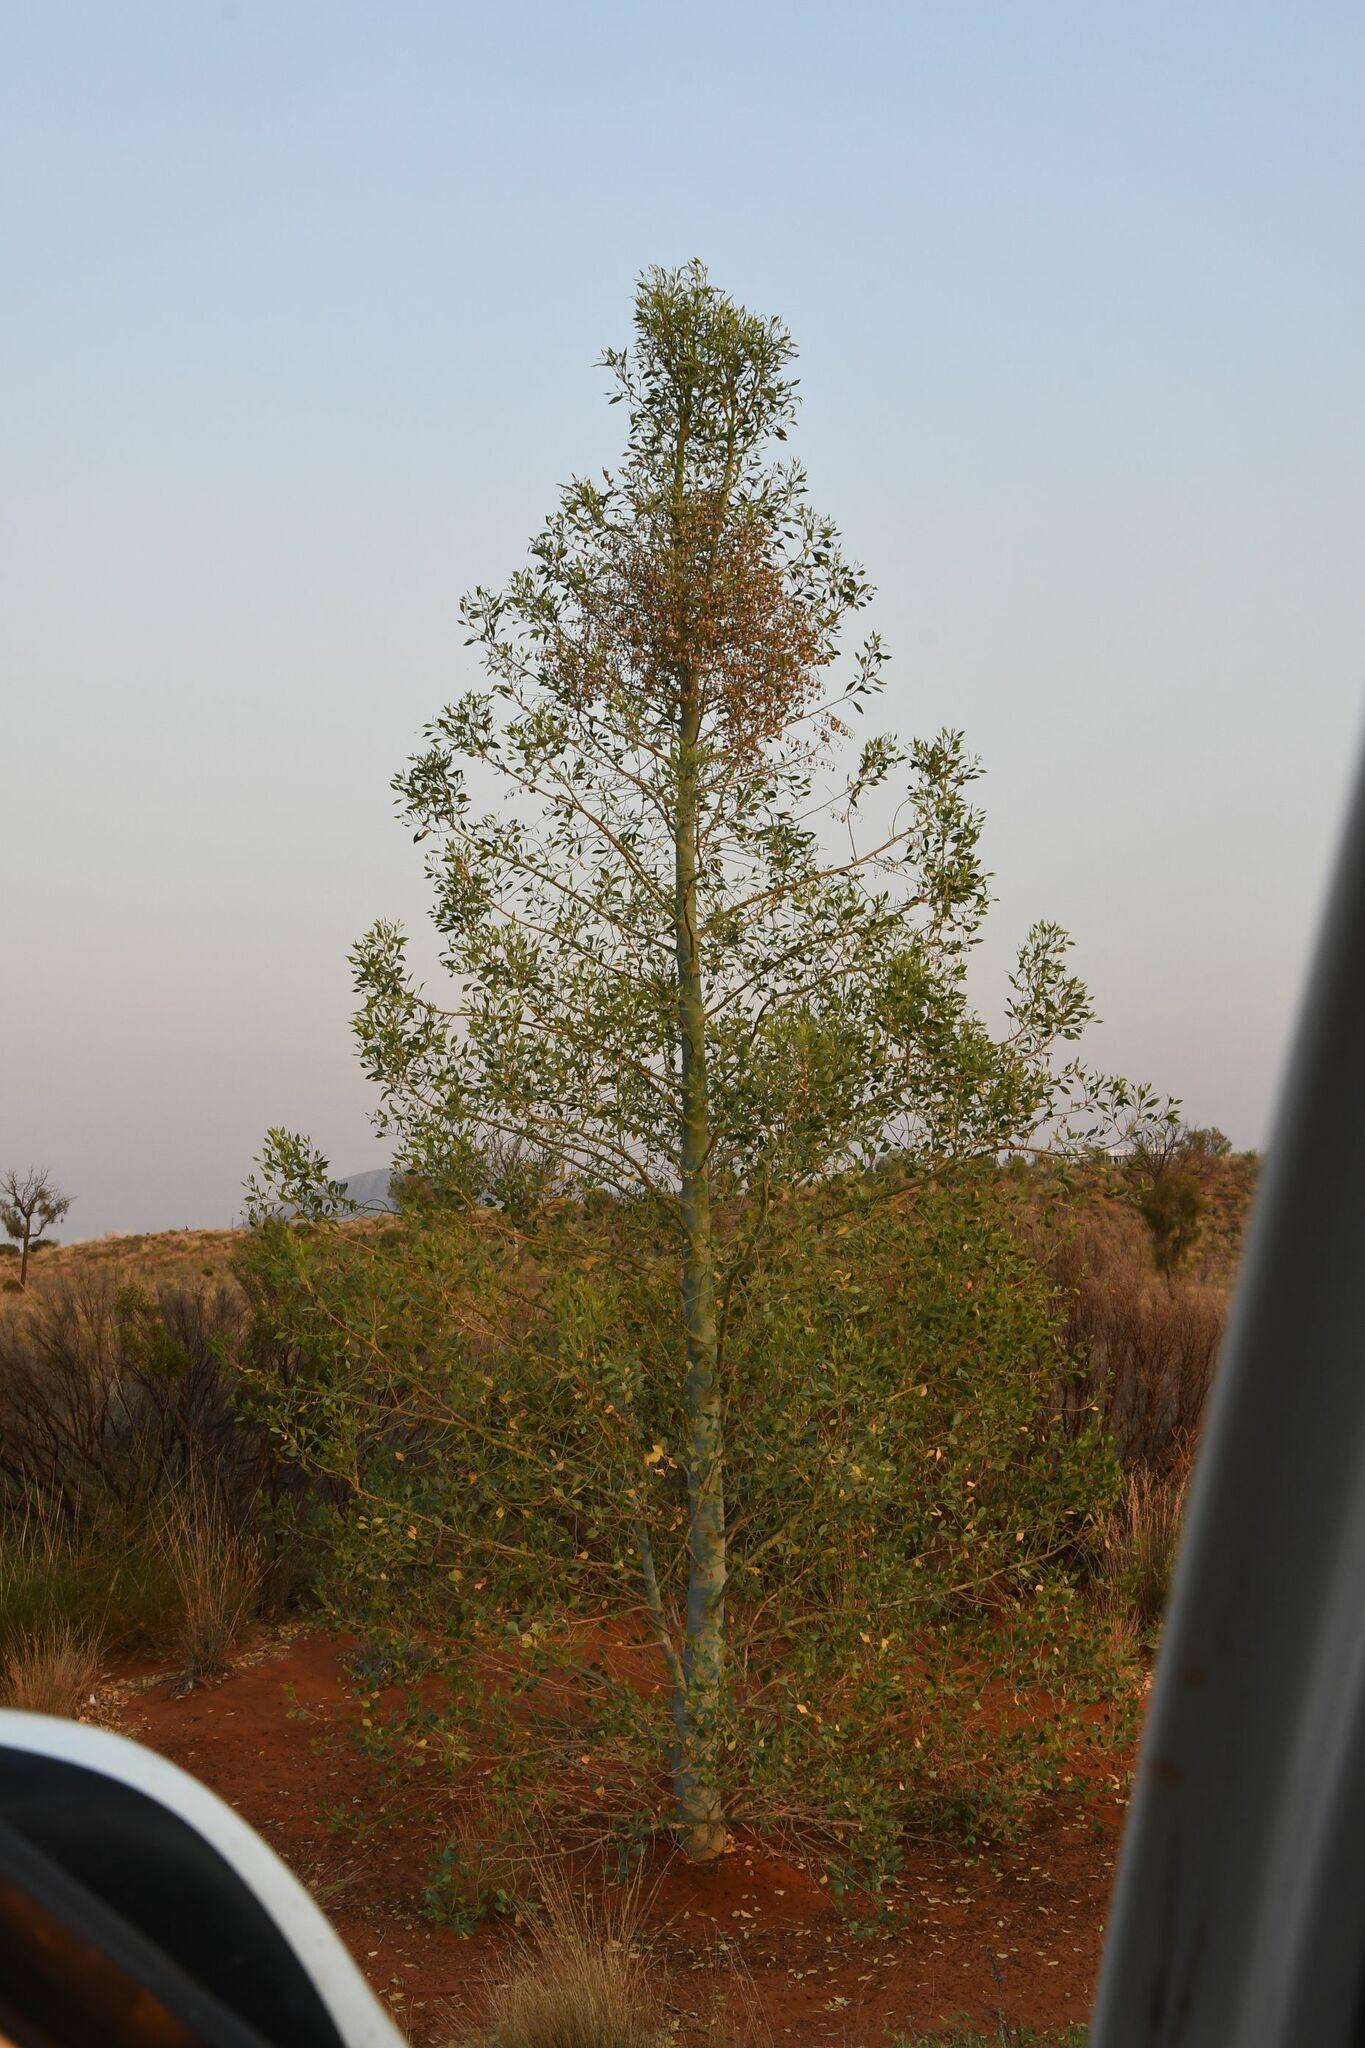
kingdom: Plantae
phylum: Tracheophyta
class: Magnoliopsida
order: Brassicales
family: Gyrostemonaceae
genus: Codonocarpus
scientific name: Codonocarpus cotinifolius
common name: Mustardtree
